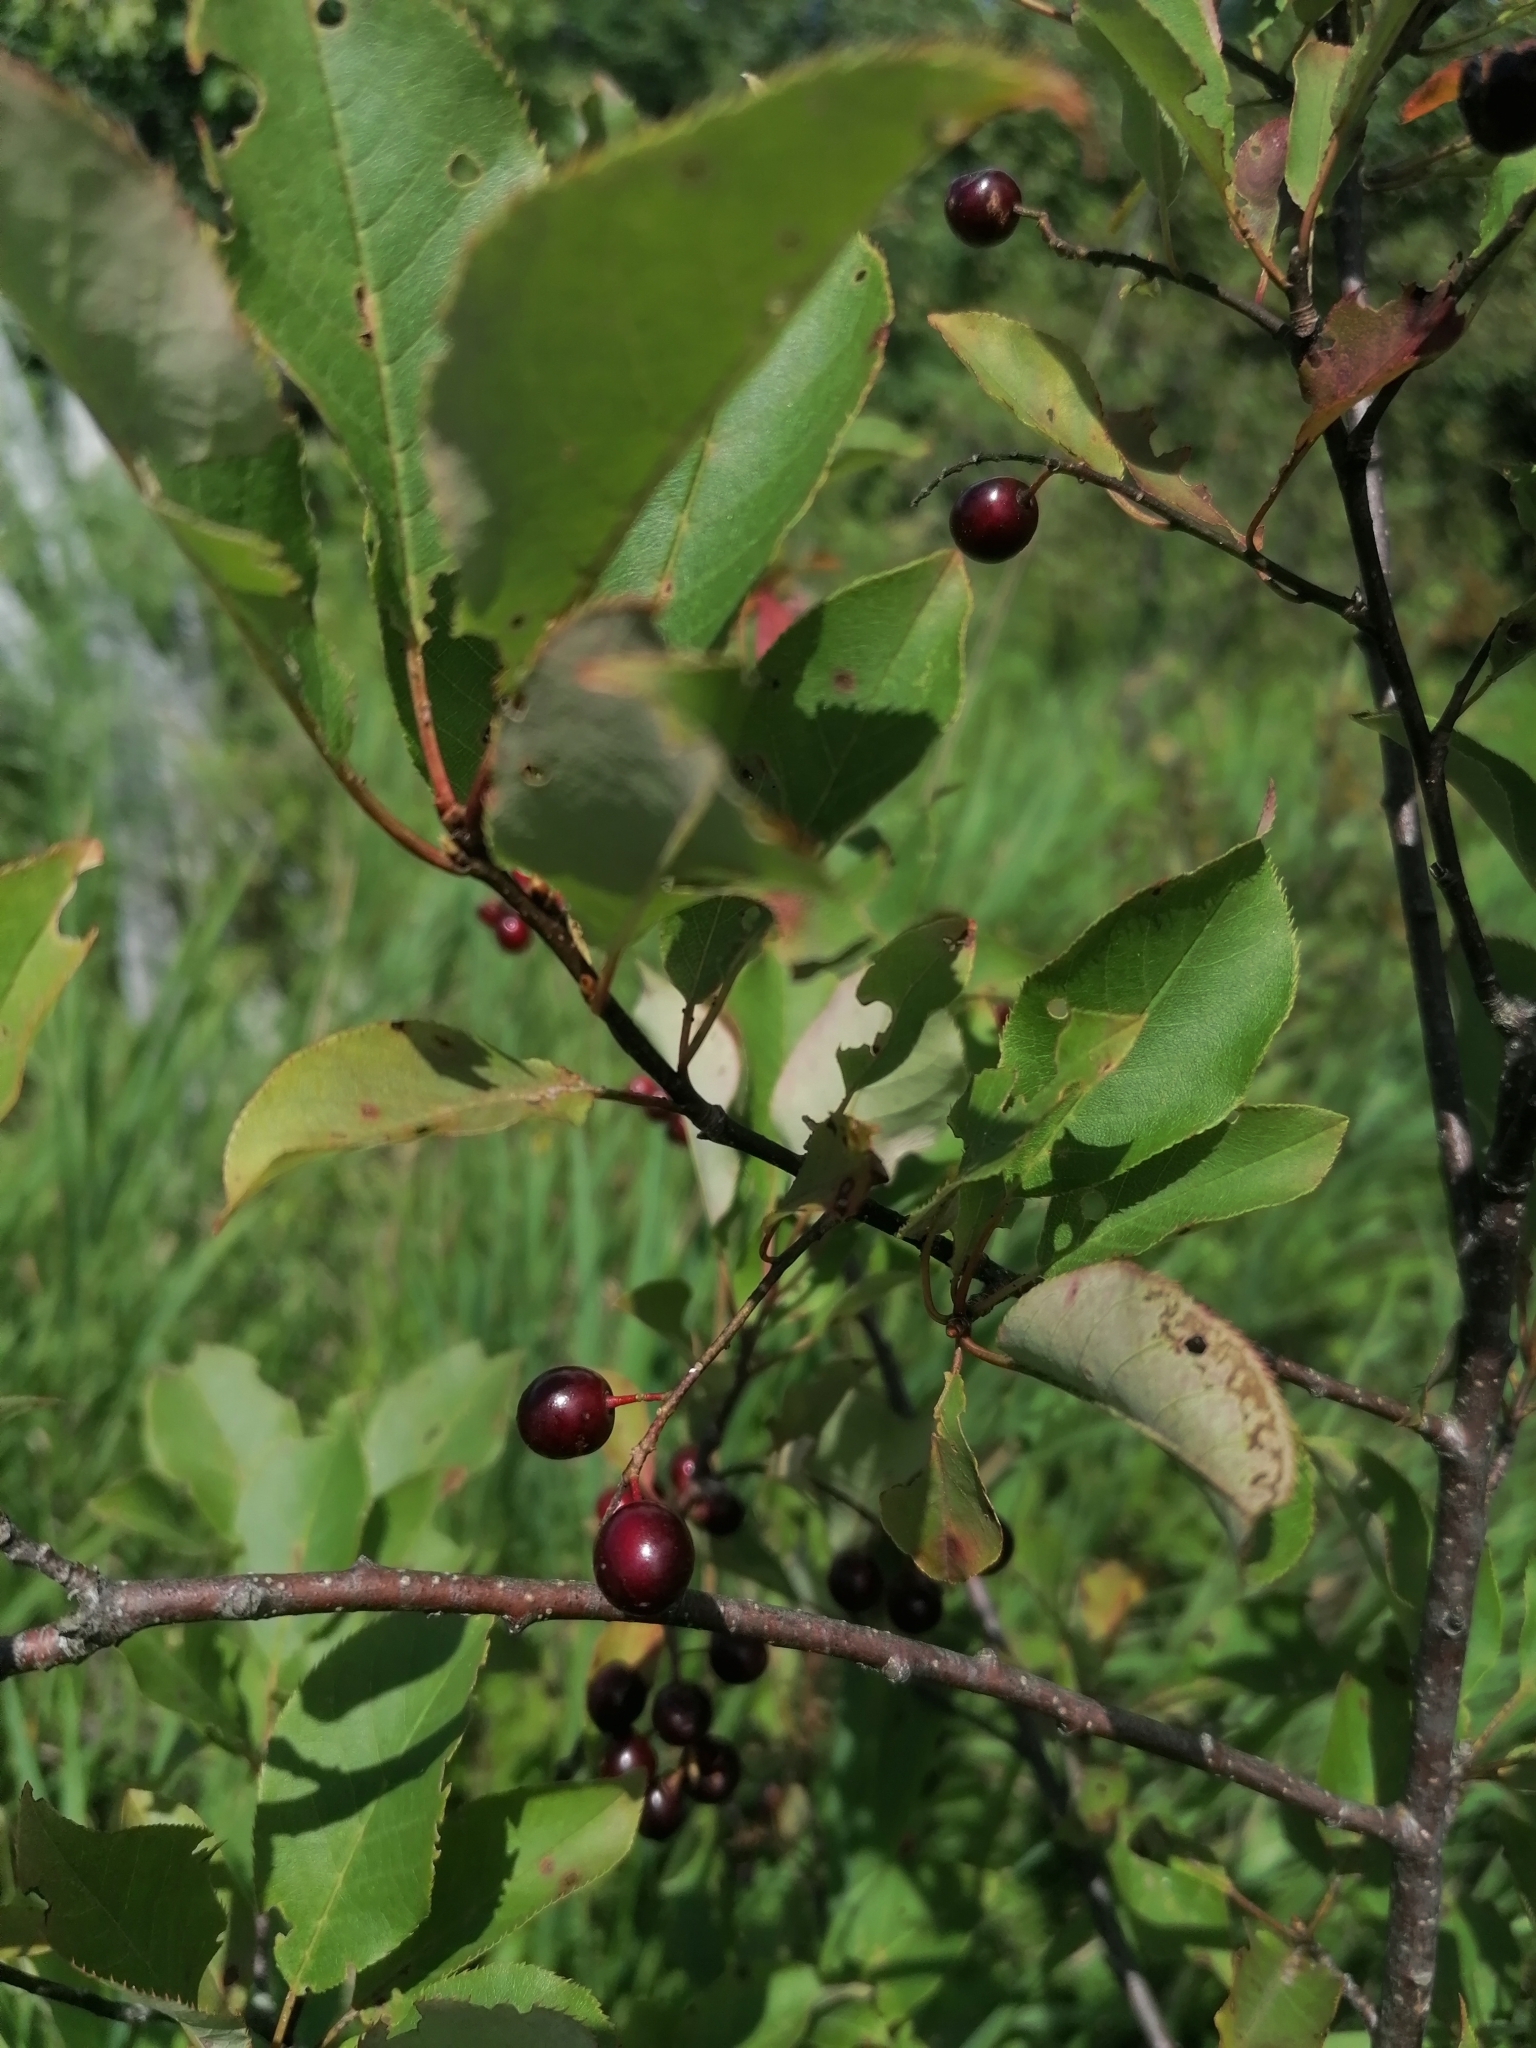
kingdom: Plantae
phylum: Tracheophyta
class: Magnoliopsida
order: Rosales
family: Rosaceae
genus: Prunus
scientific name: Prunus virginiana
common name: Chokecherry
